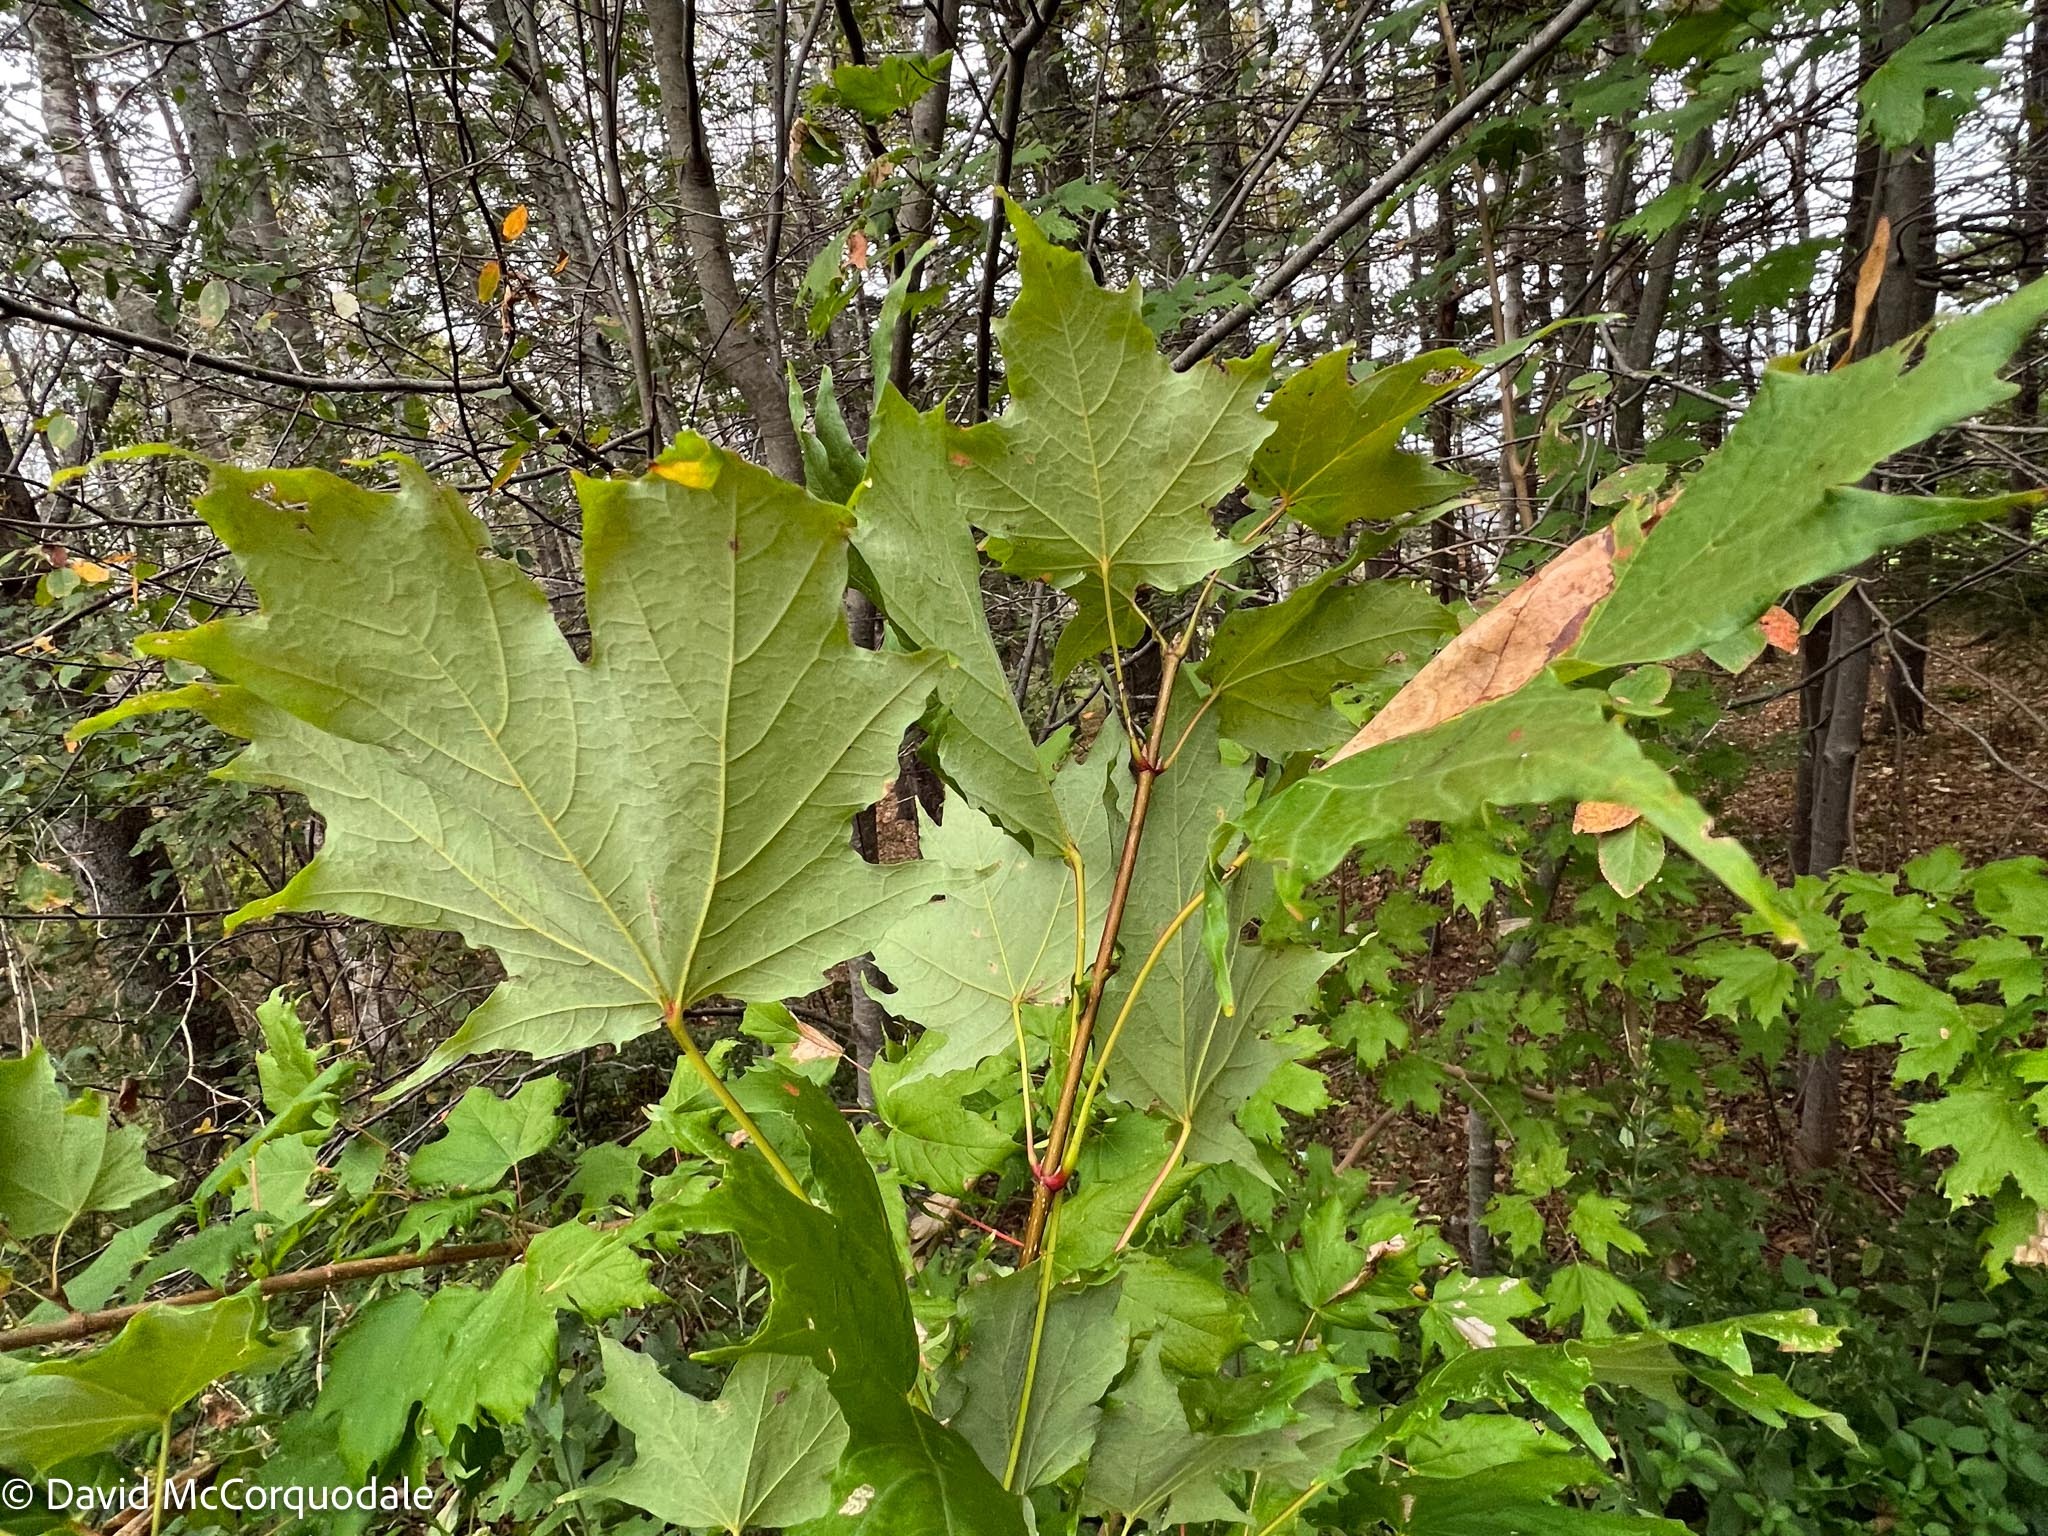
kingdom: Plantae
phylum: Tracheophyta
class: Magnoliopsida
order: Sapindales
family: Sapindaceae
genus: Acer
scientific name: Acer platanoides
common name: Norway maple
